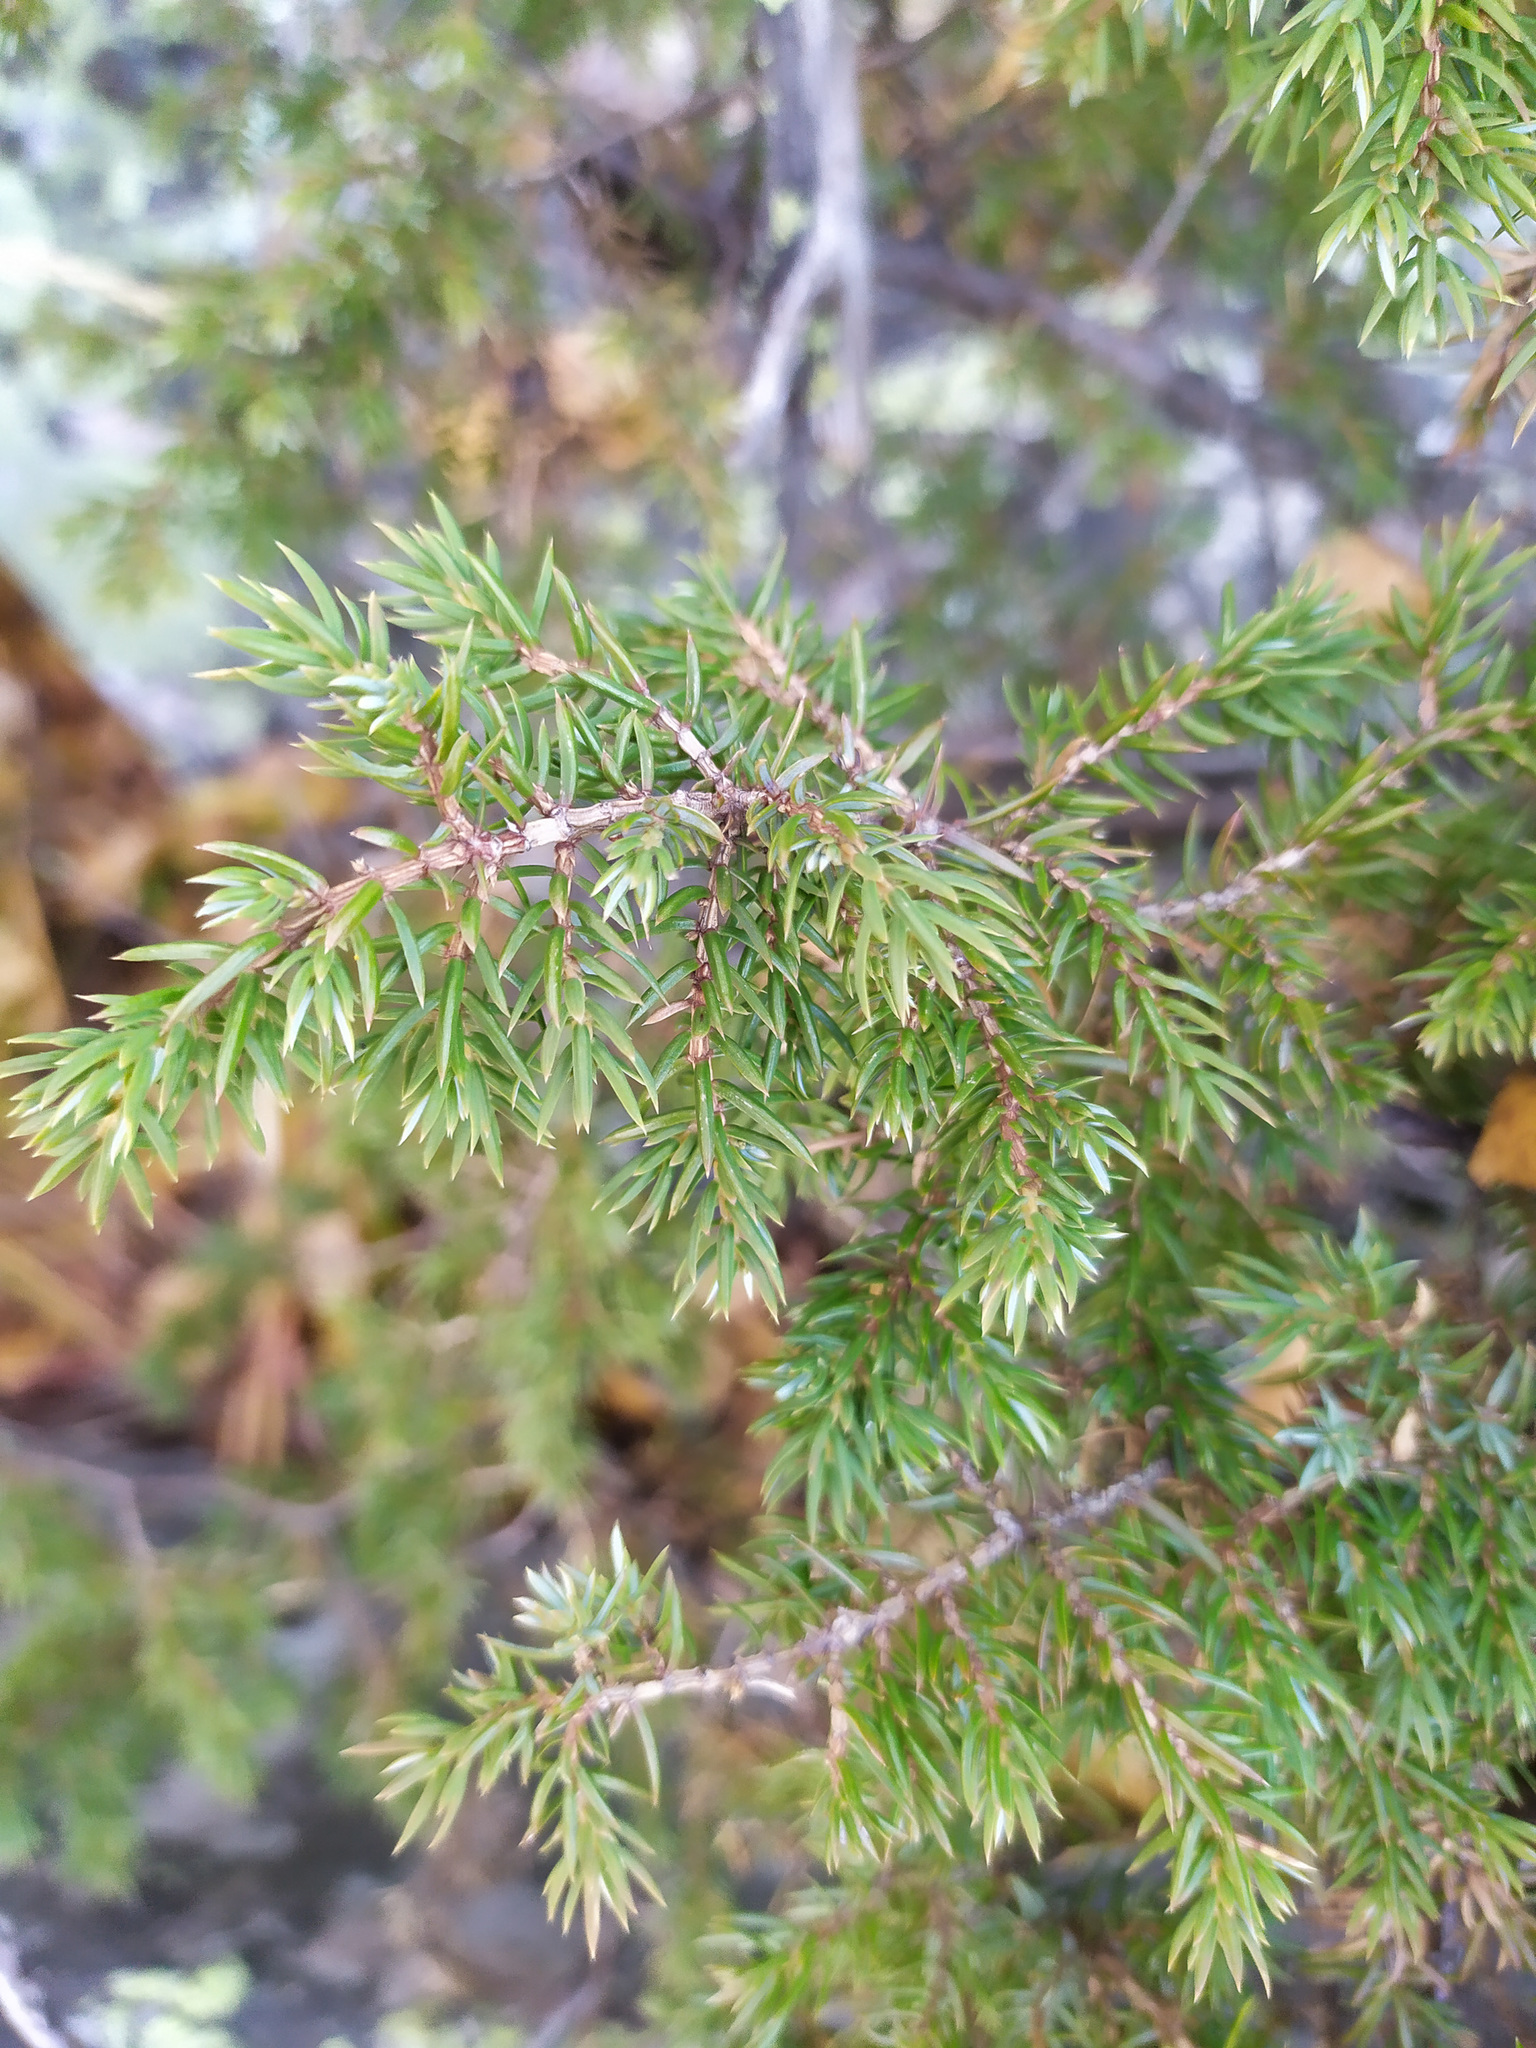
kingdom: Plantae
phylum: Tracheophyta
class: Pinopsida
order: Pinales
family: Cupressaceae
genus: Juniperus
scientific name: Juniperus communis
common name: Common juniper
